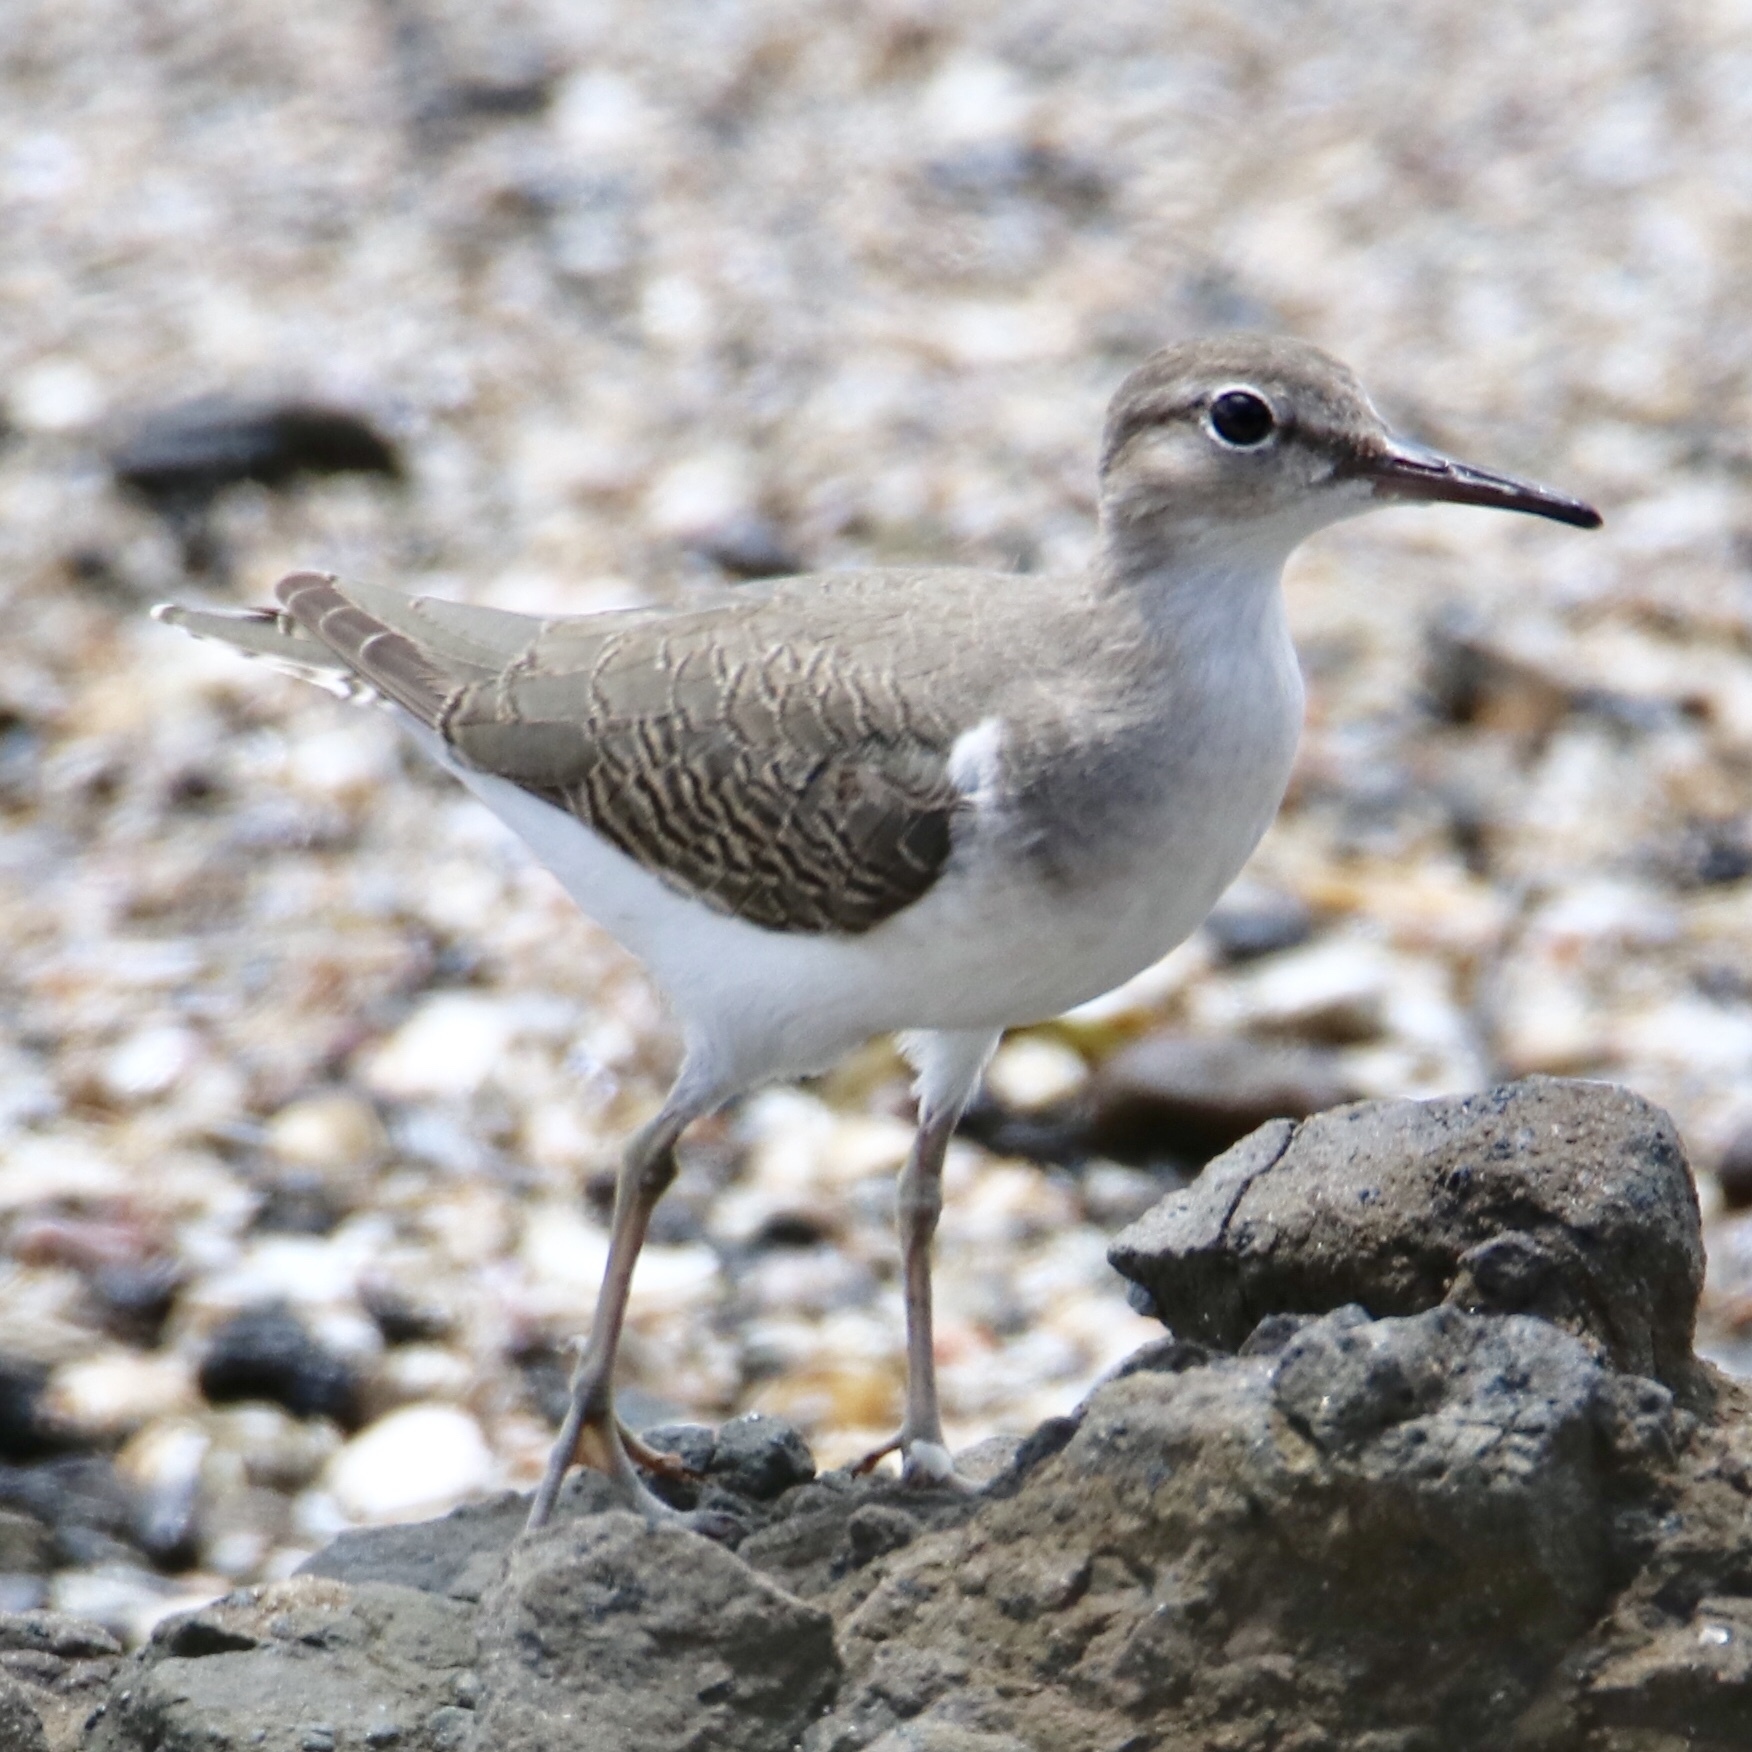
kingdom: Animalia
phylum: Chordata
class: Aves
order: Charadriiformes
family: Scolopacidae
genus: Actitis
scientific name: Actitis macularius
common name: Spotted sandpiper
